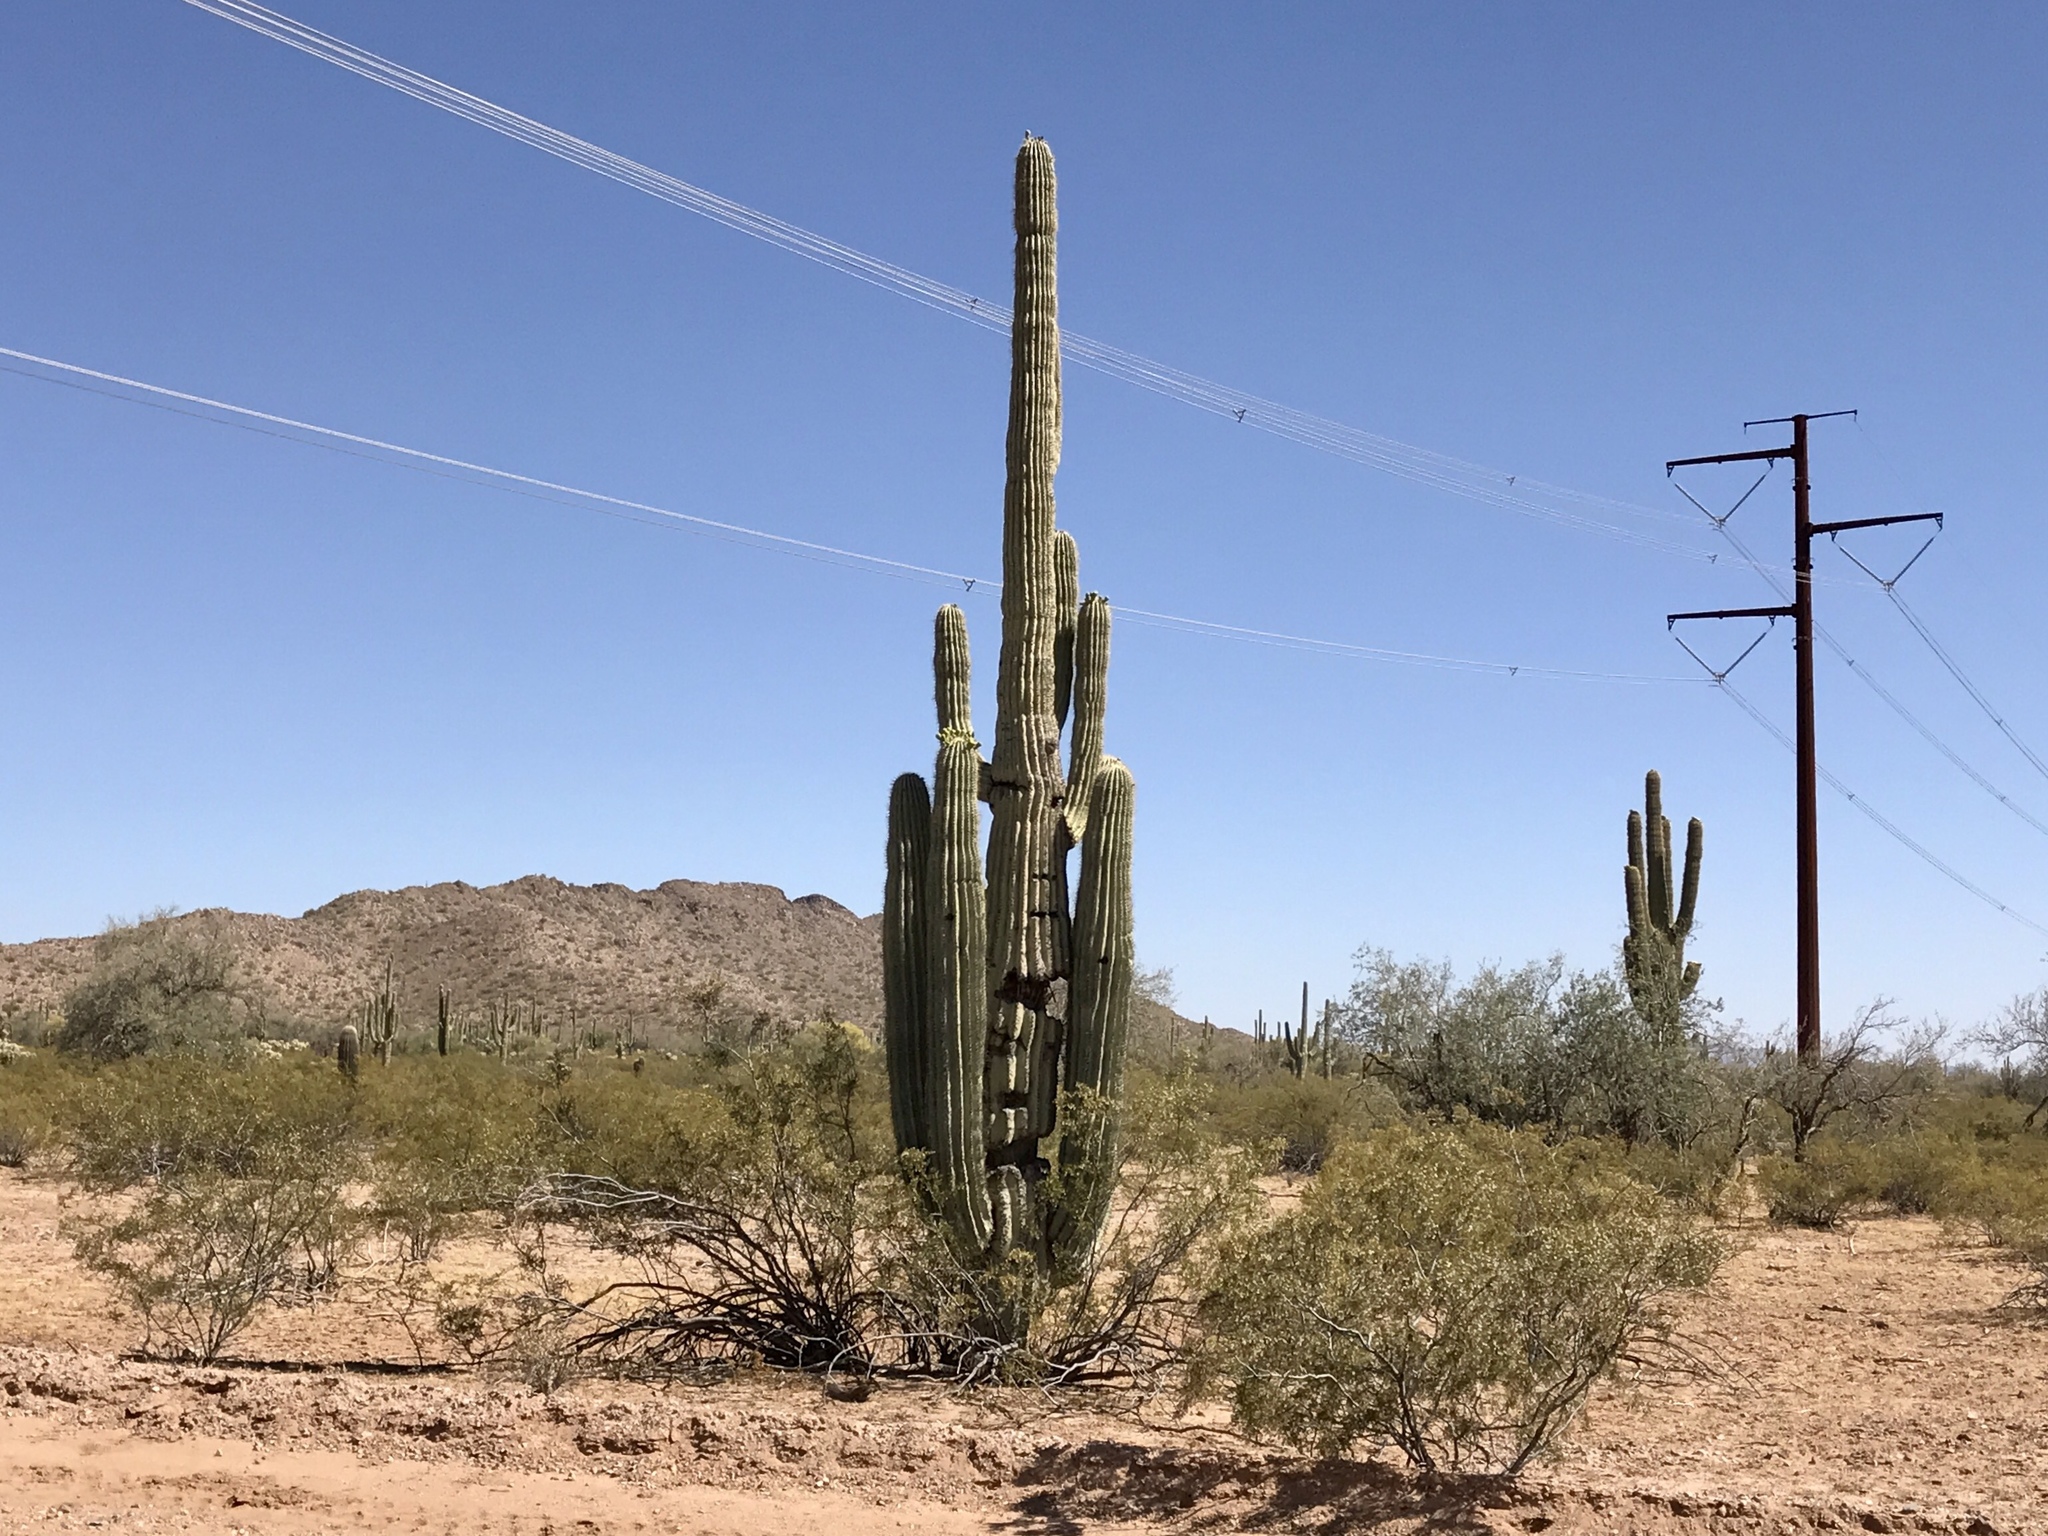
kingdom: Plantae
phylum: Tracheophyta
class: Magnoliopsida
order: Caryophyllales
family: Cactaceae
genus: Carnegiea
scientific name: Carnegiea gigantea
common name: Saguaro
